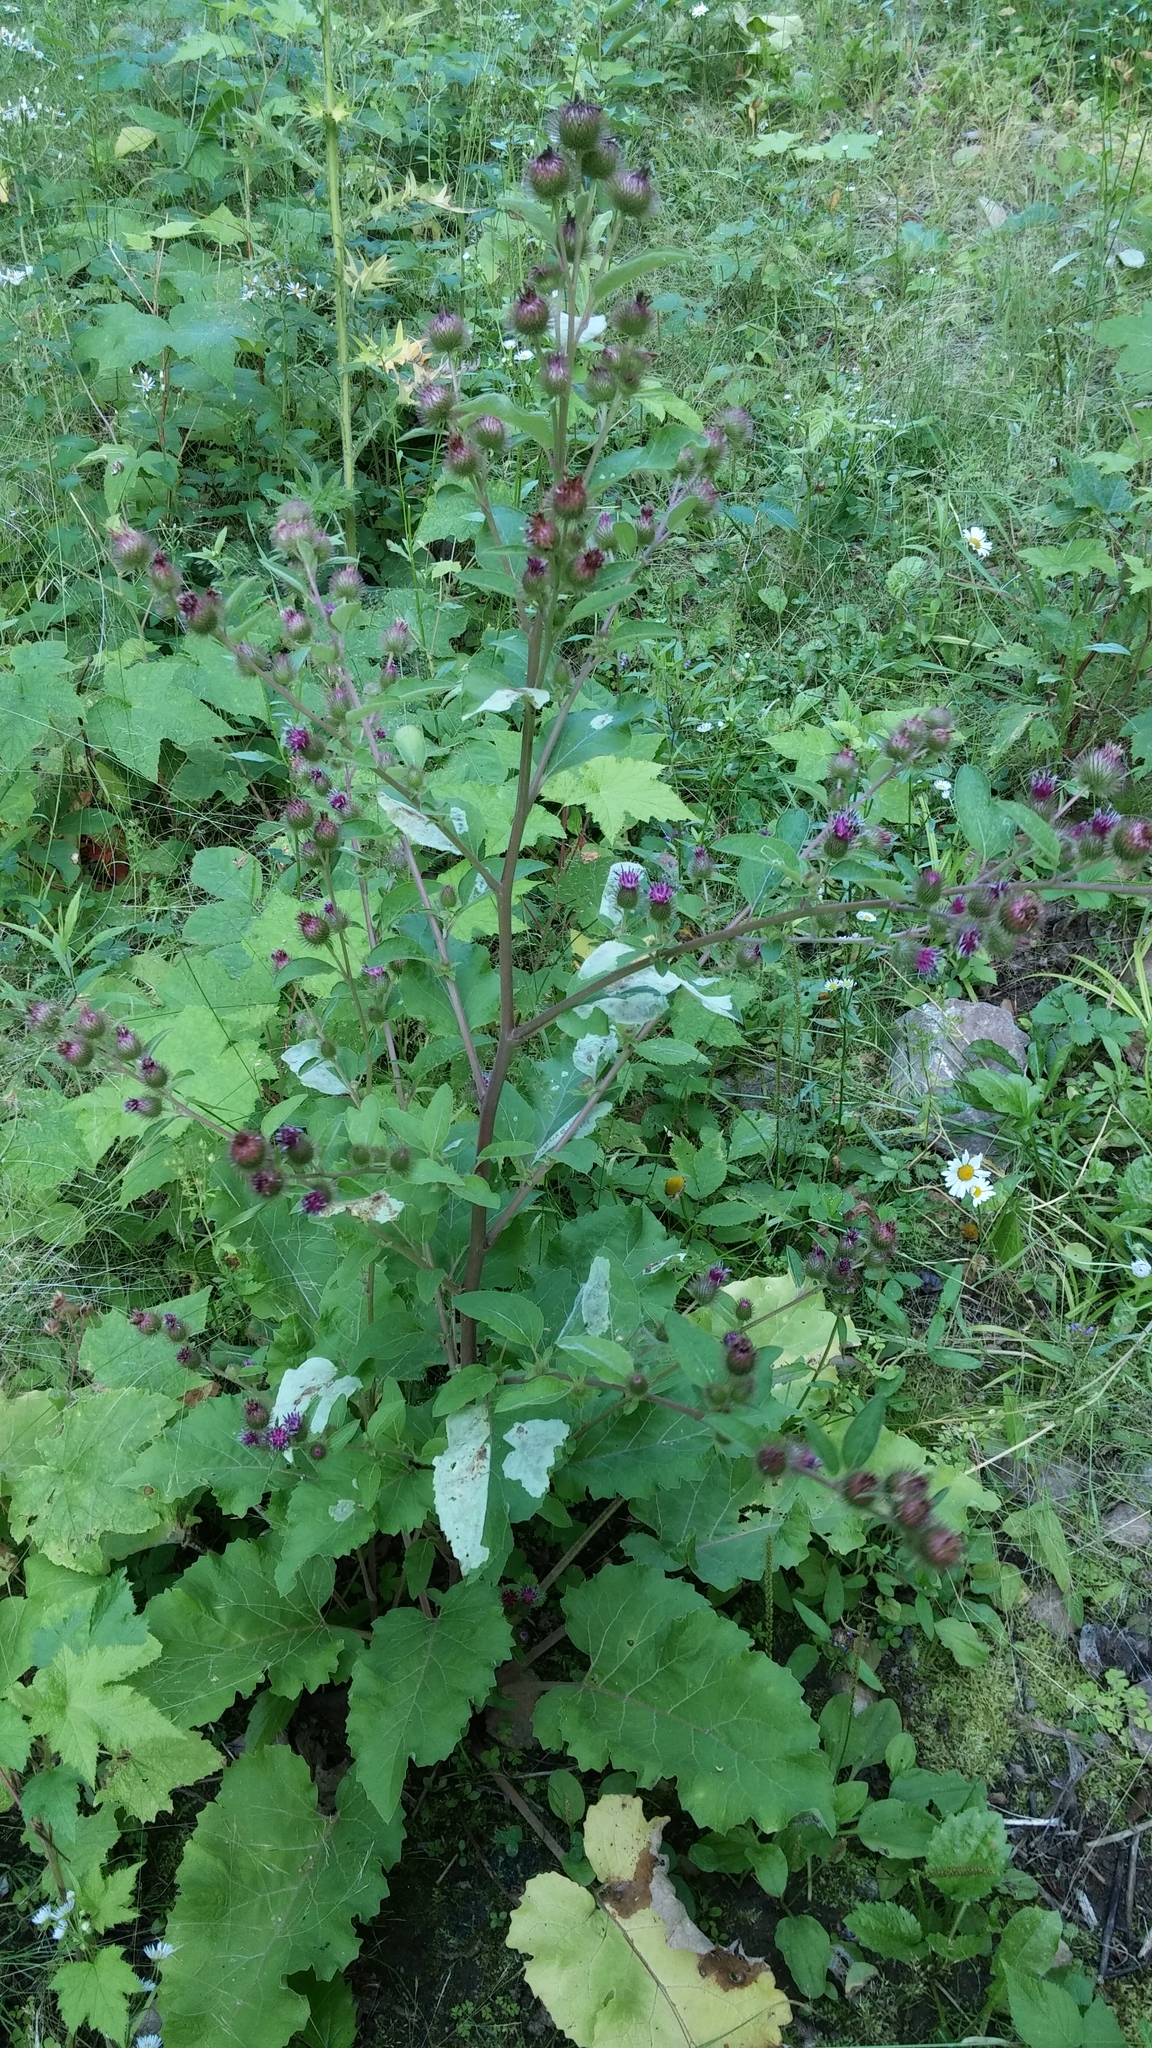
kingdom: Plantae
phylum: Tracheophyta
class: Magnoliopsida
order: Asterales
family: Asteraceae
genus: Arctium
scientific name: Arctium minus
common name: Lesser burdock
